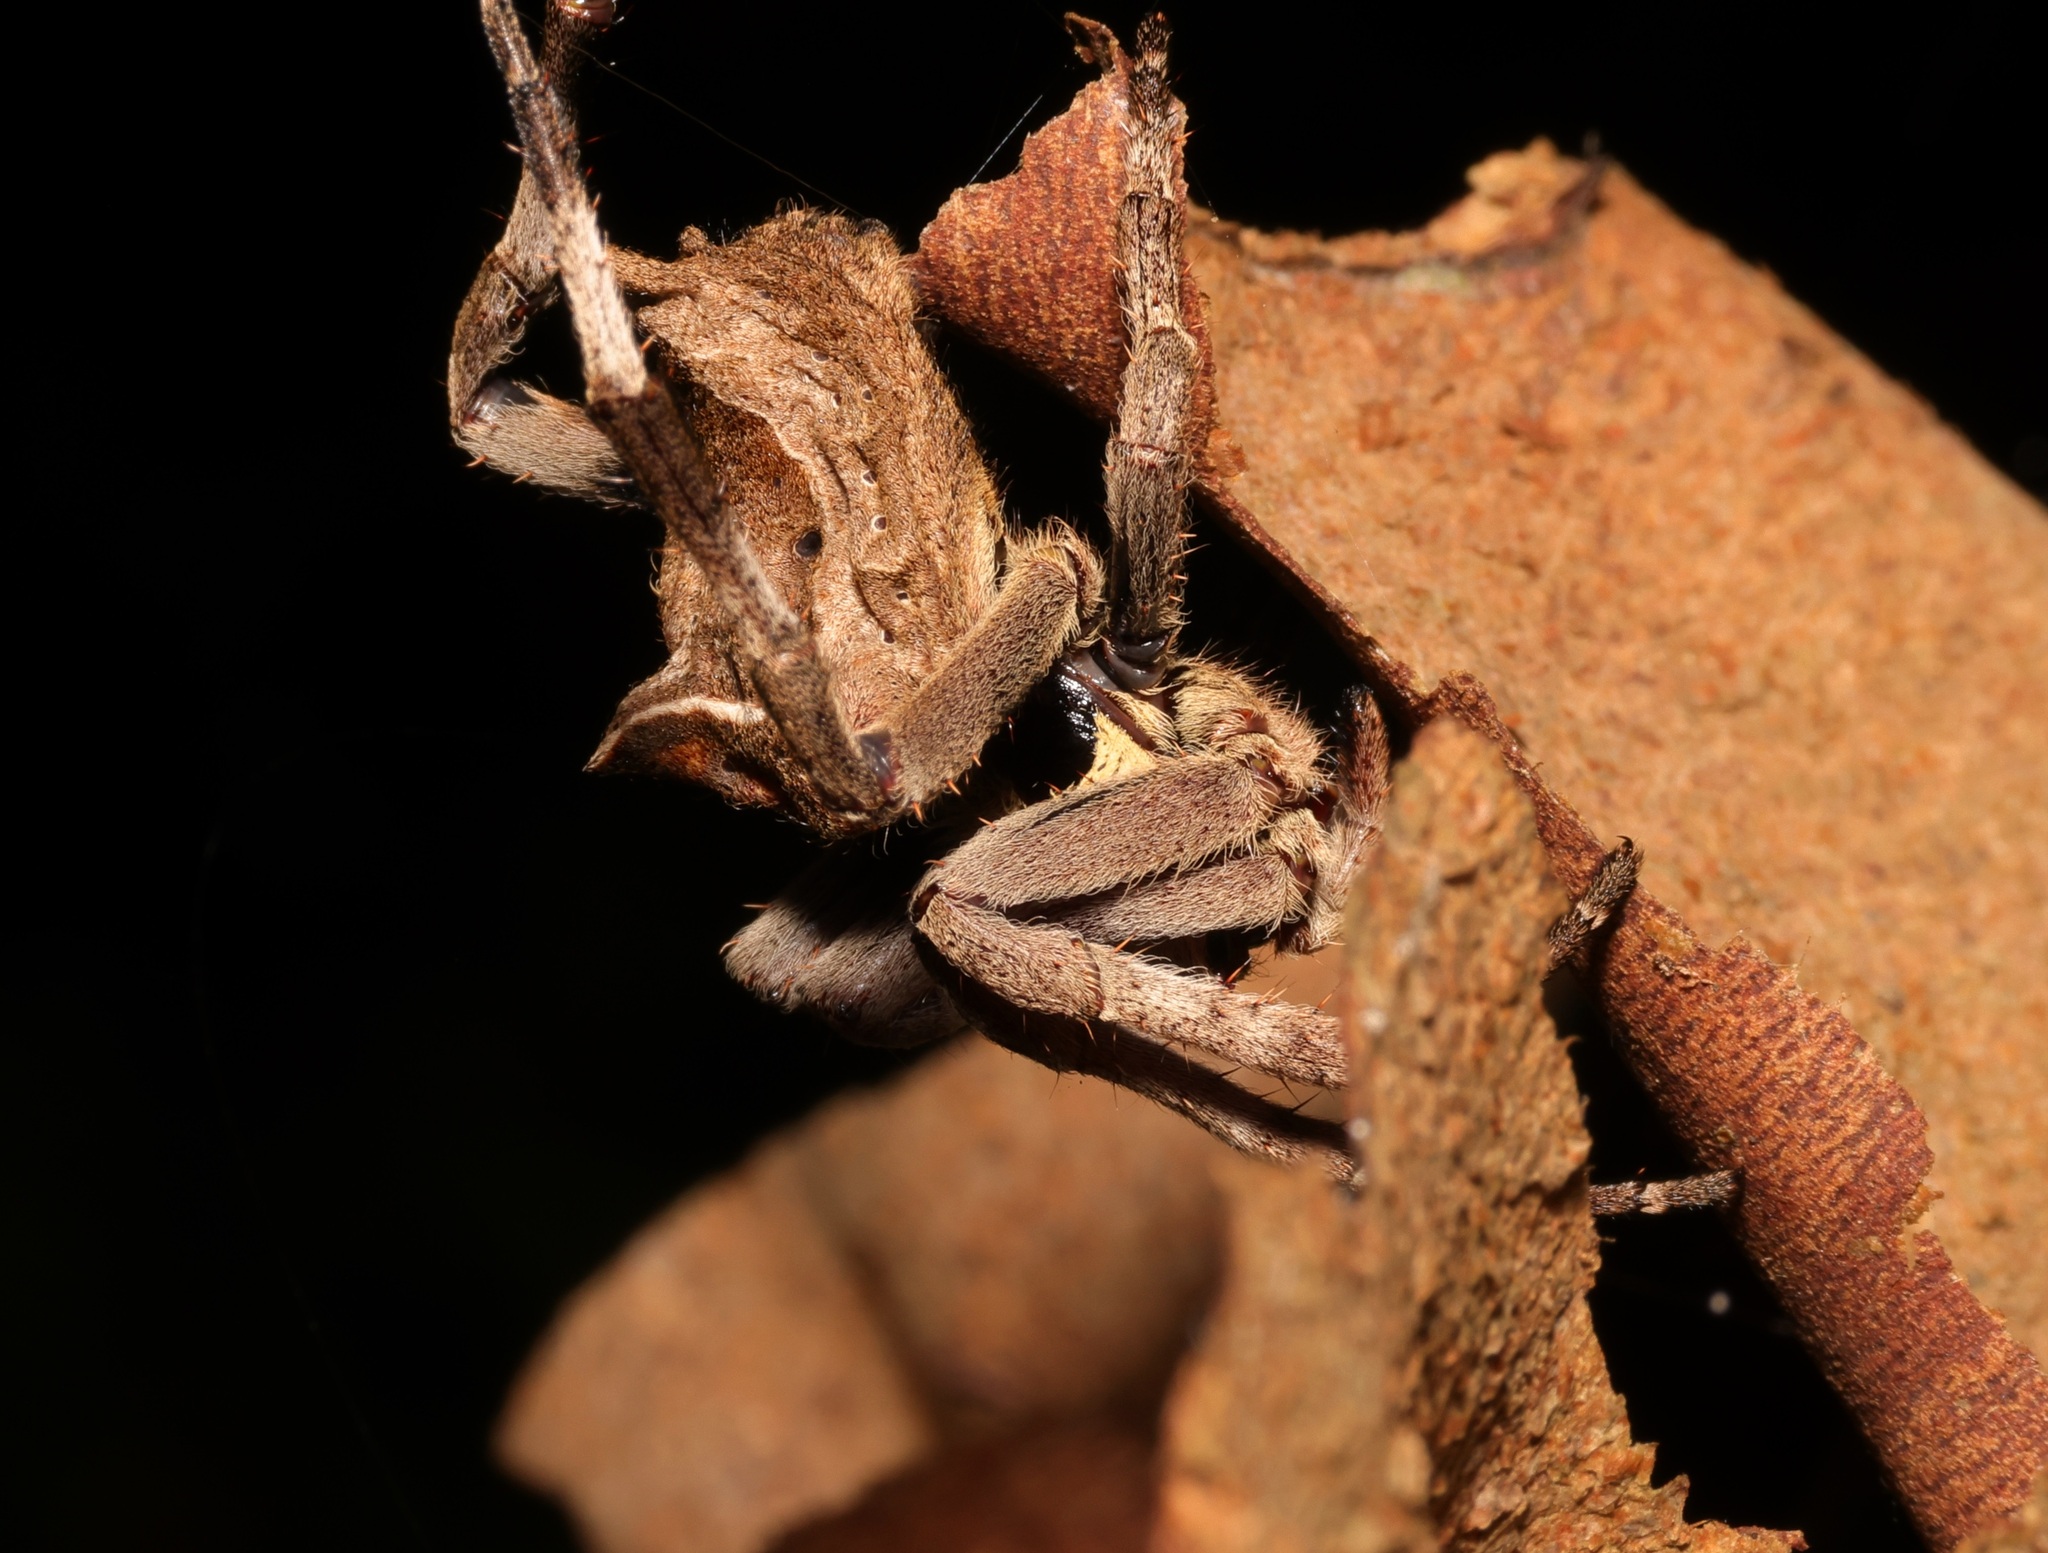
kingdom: Animalia
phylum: Arthropoda
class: Arachnida
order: Araneae
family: Araneidae
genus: Parawixia
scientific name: Parawixia dehaani
